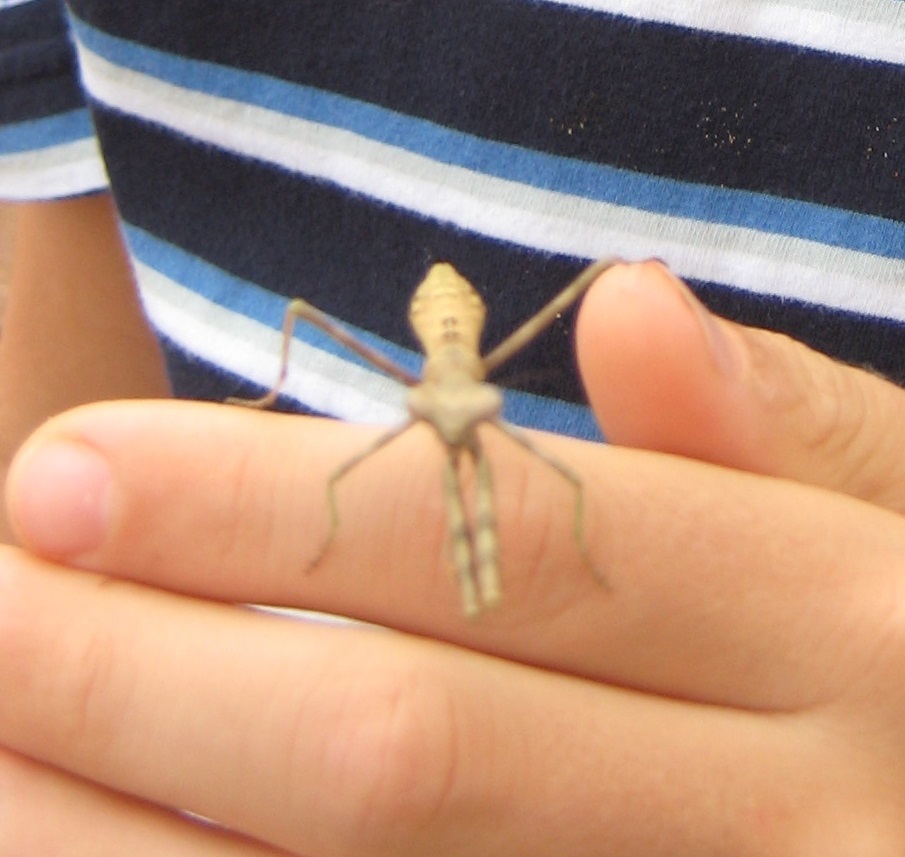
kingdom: Animalia
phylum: Arthropoda
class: Insecta
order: Mantodea
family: Mantidae
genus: Stagmomantis
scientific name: Stagmomantis carolina
